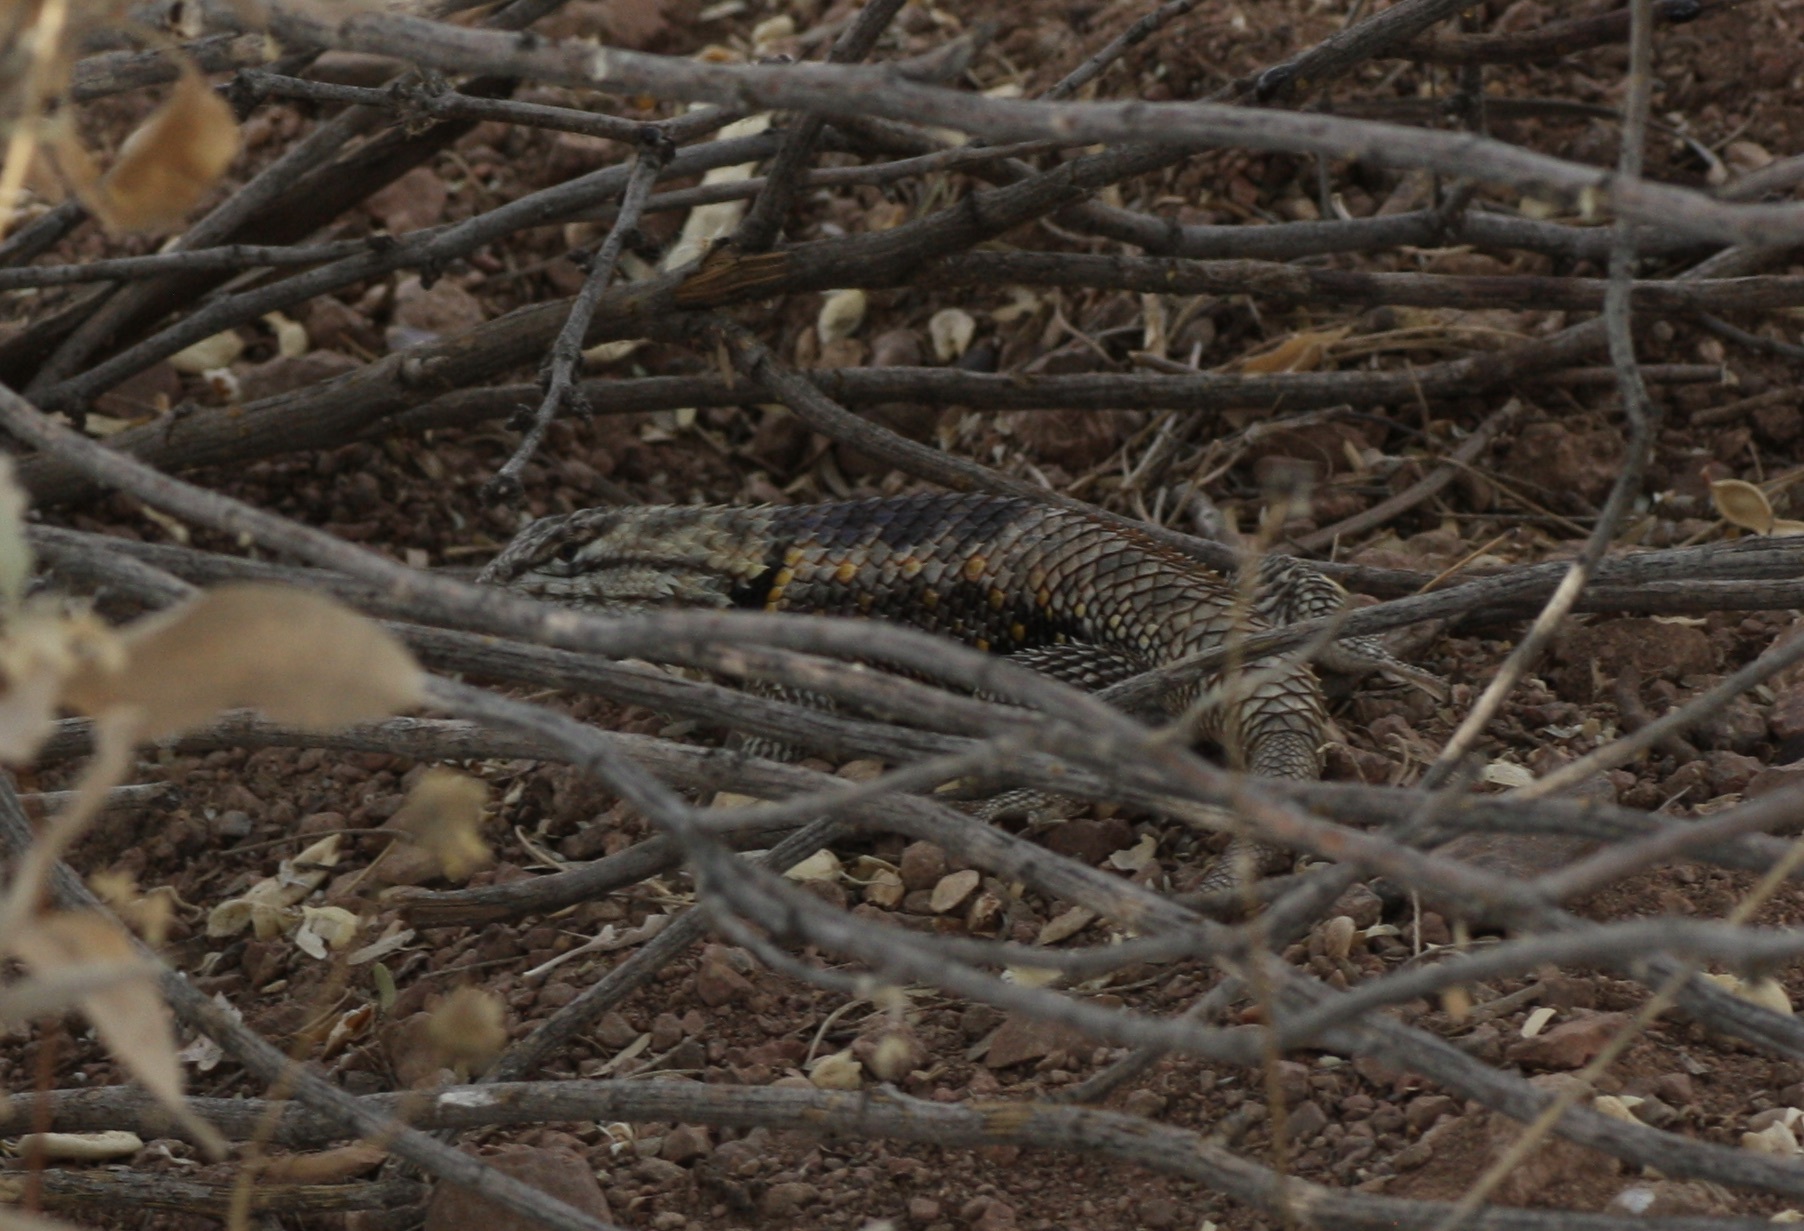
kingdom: Animalia
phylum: Chordata
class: Squamata
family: Phrynosomatidae
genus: Sceloporus
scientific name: Sceloporus magister
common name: Desert spiny lizard
